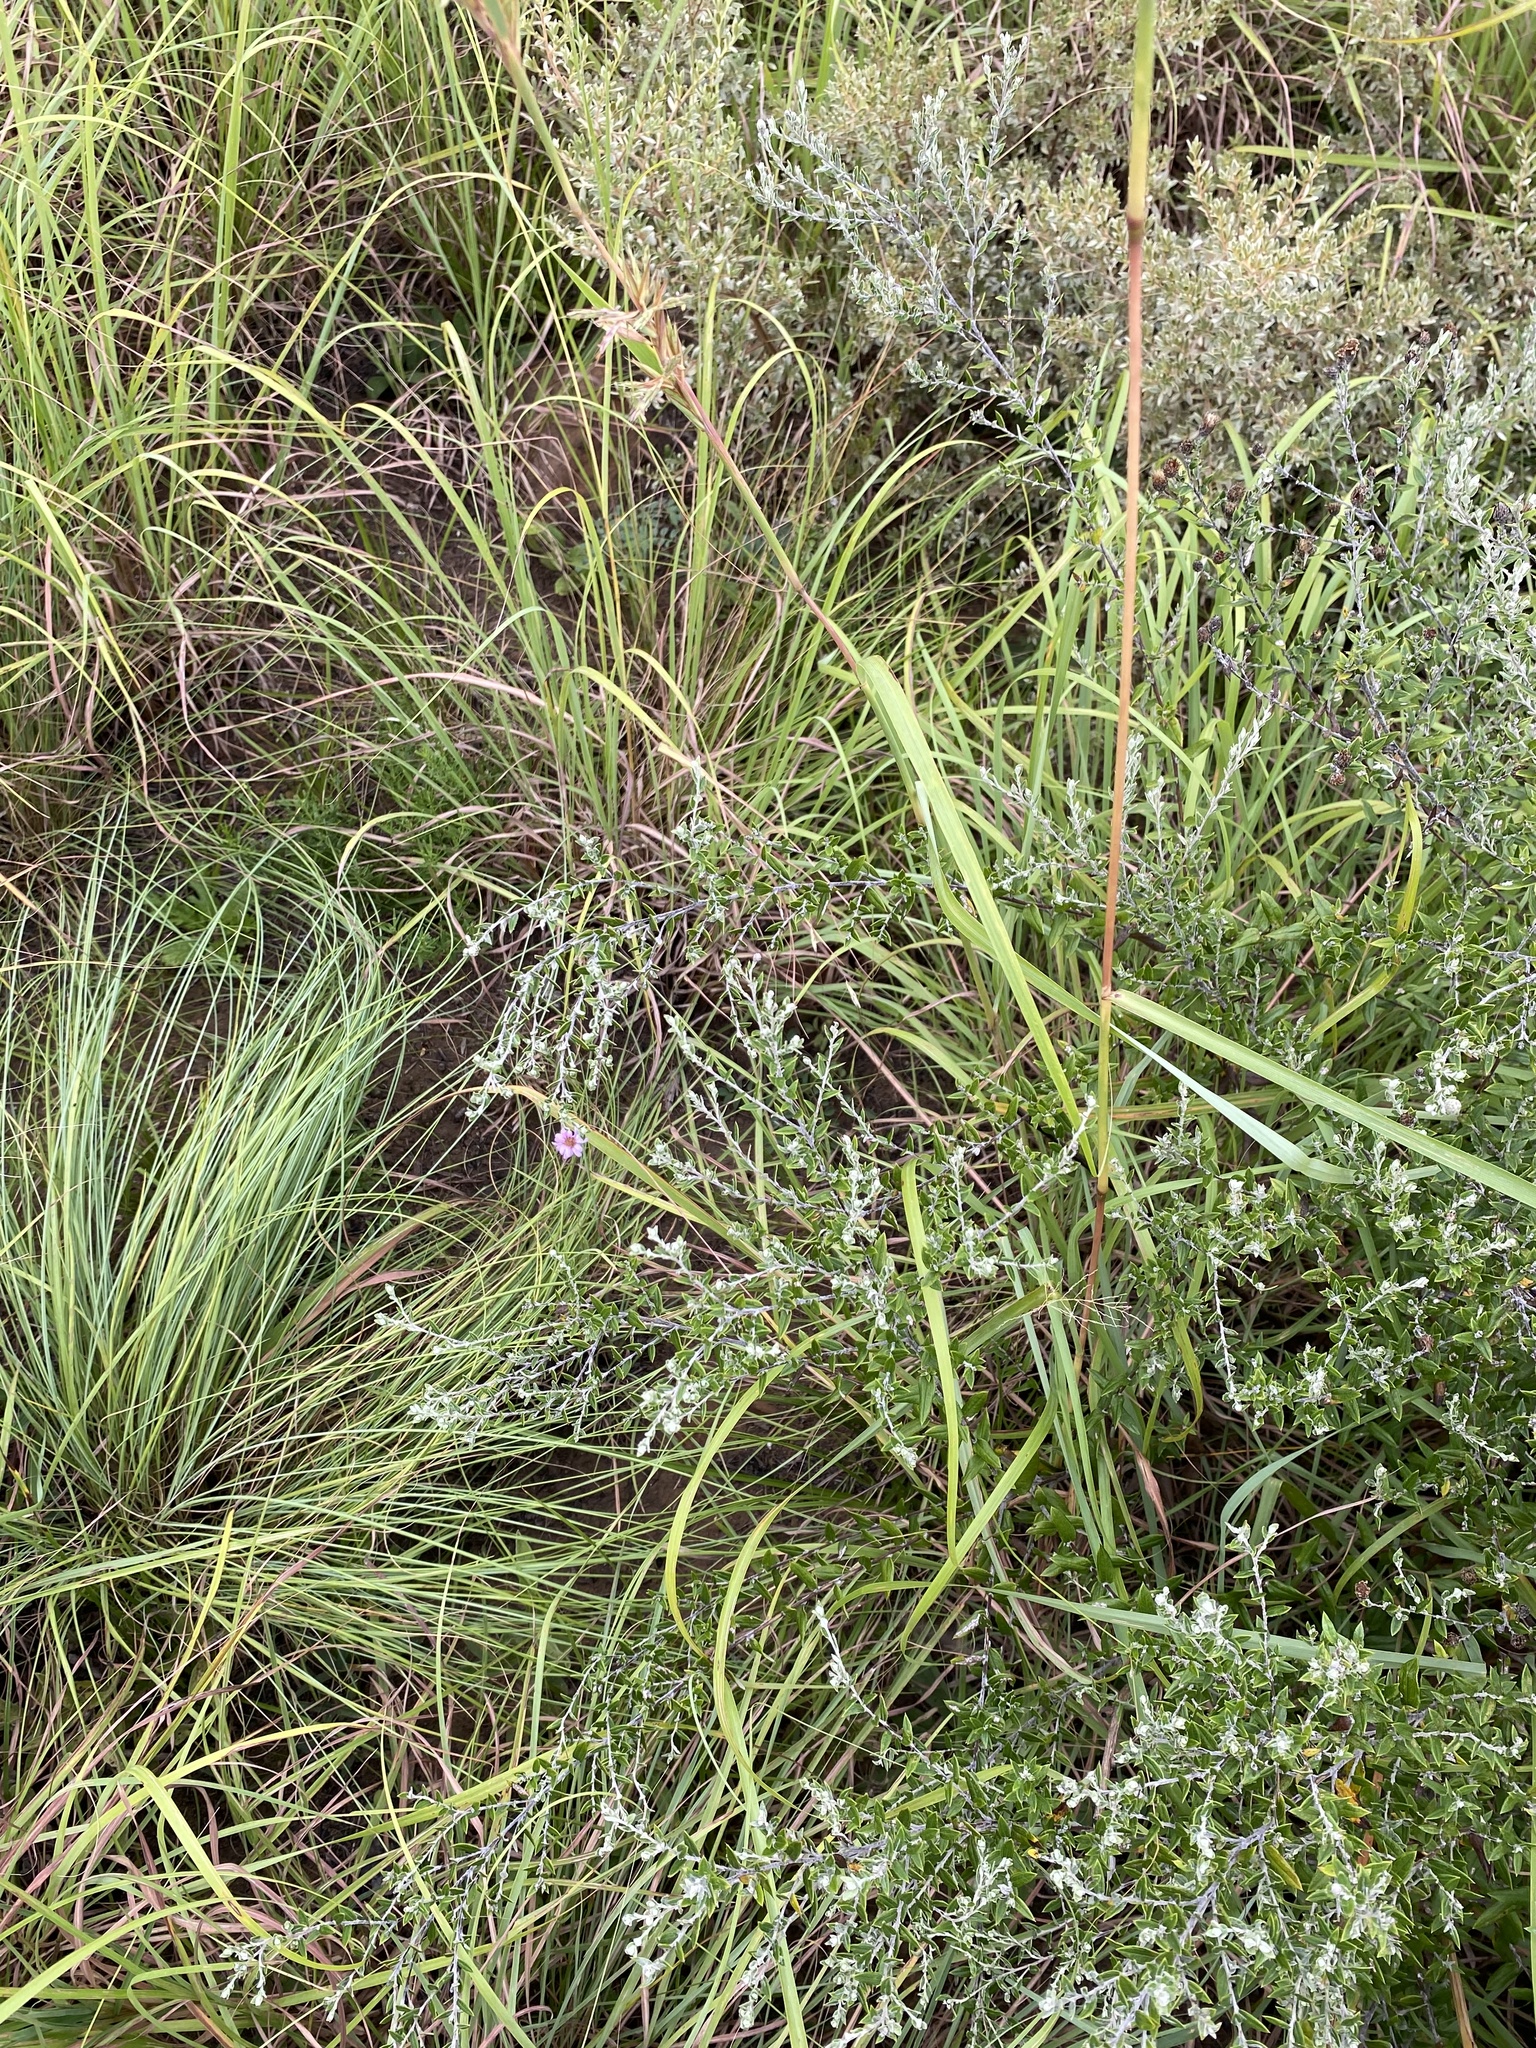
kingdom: Plantae
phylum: Tracheophyta
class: Magnoliopsida
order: Asterales
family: Asteraceae
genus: Athrixia
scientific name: Athrixia phylicoides
